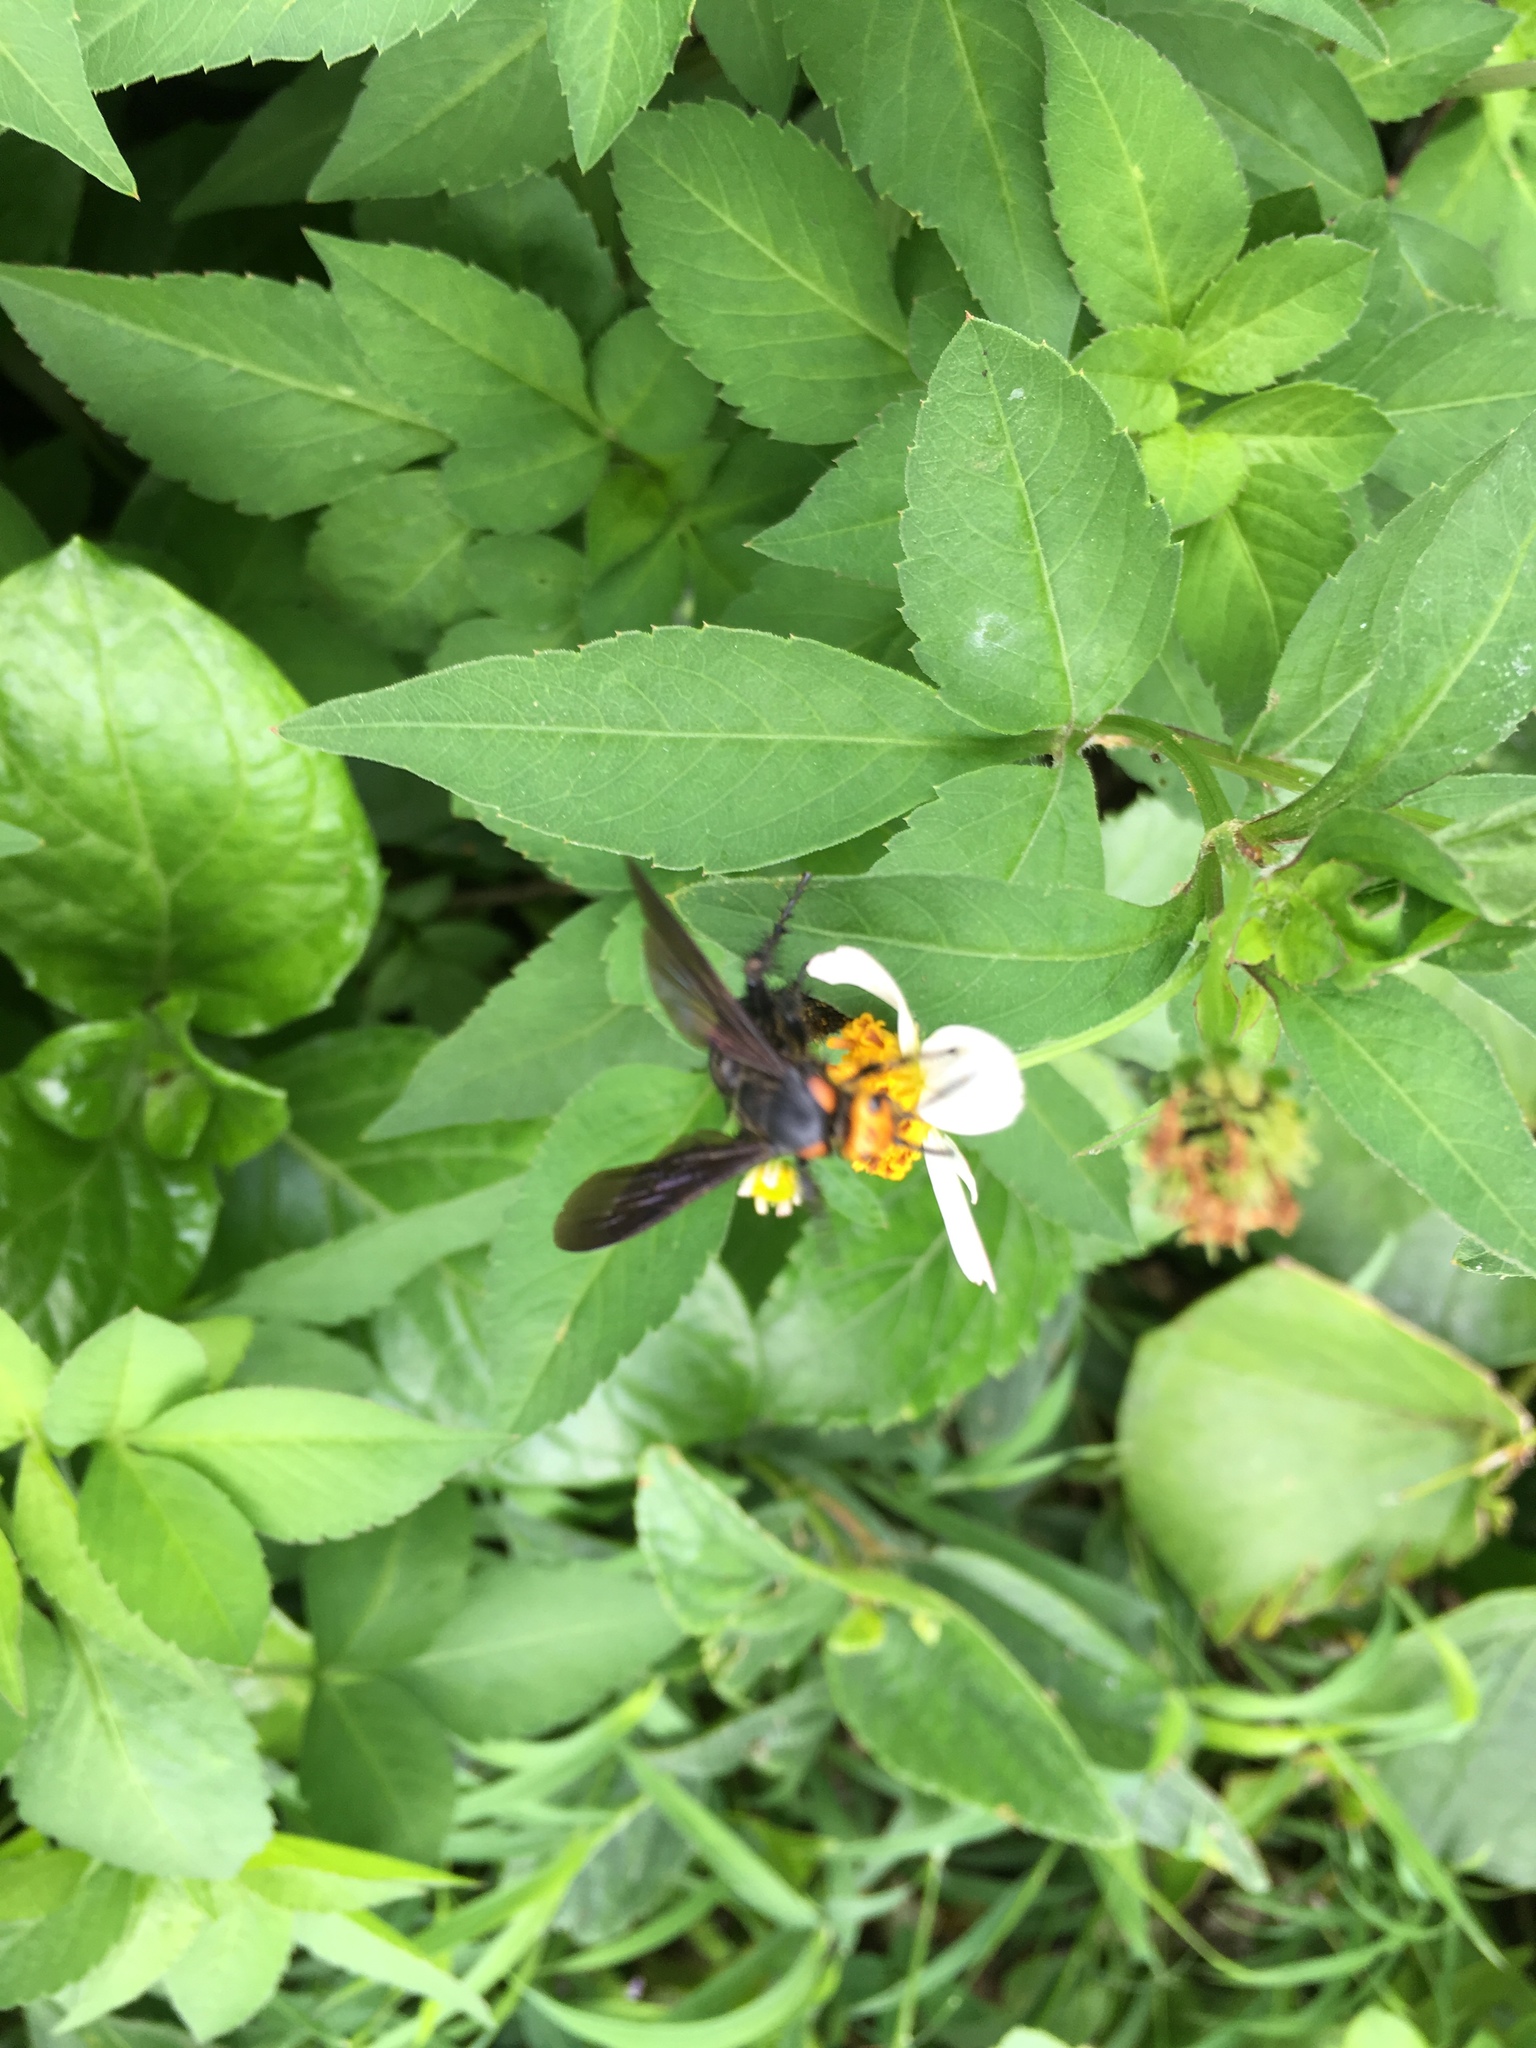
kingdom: Animalia
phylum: Arthropoda
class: Insecta
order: Hymenoptera
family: Scoliidae
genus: Scolia
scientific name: Scolia clypeata
